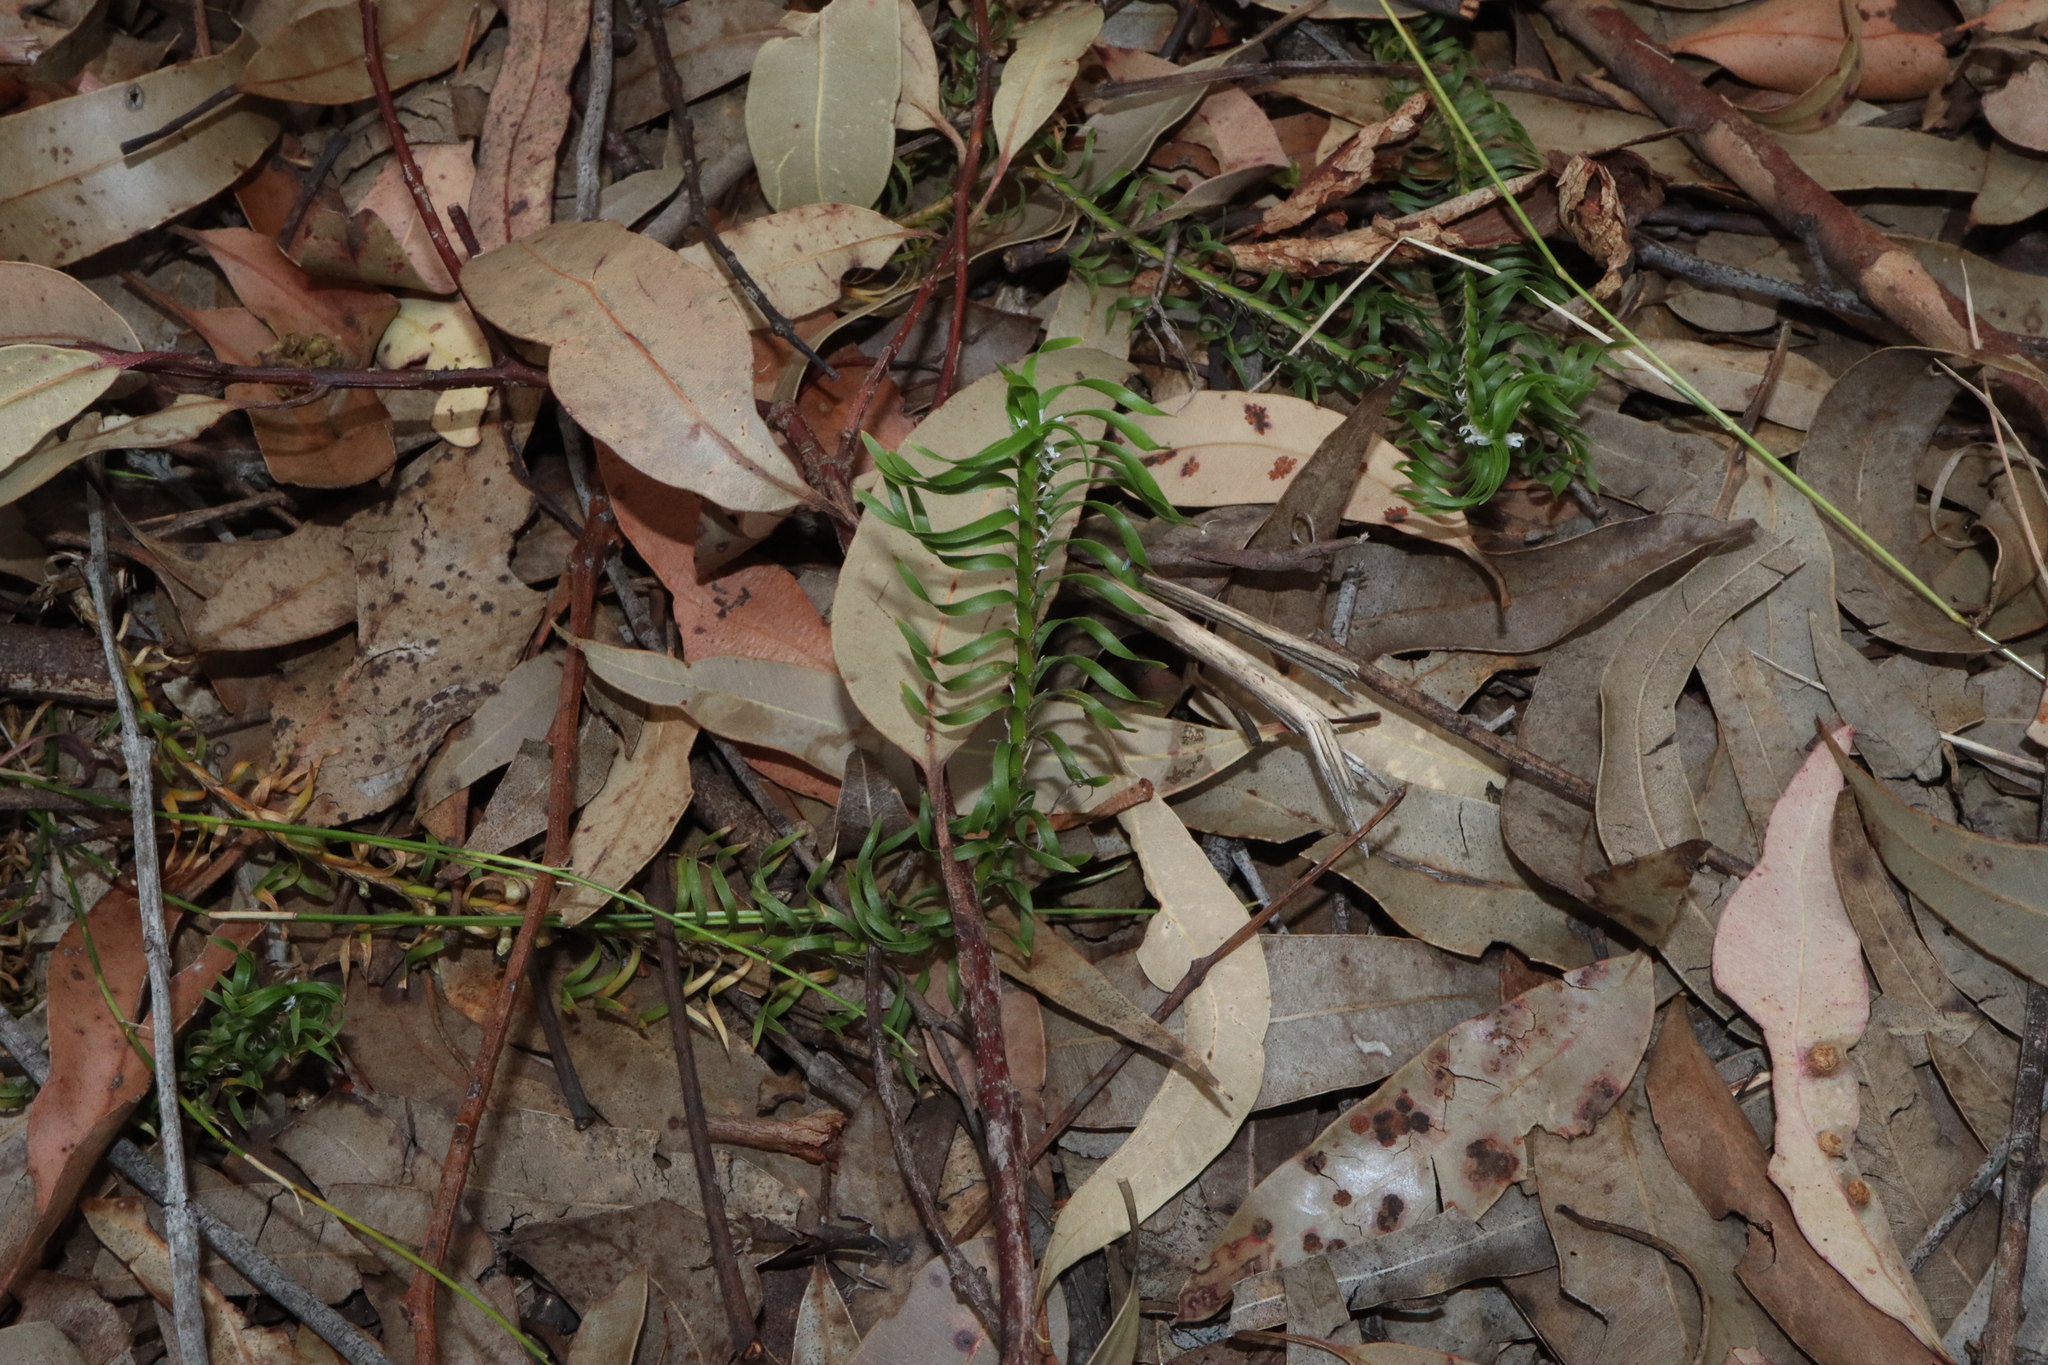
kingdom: Plantae
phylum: Tracheophyta
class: Liliopsida
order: Asparagales
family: Asparagaceae
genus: Lomandra
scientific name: Lomandra obliqua
